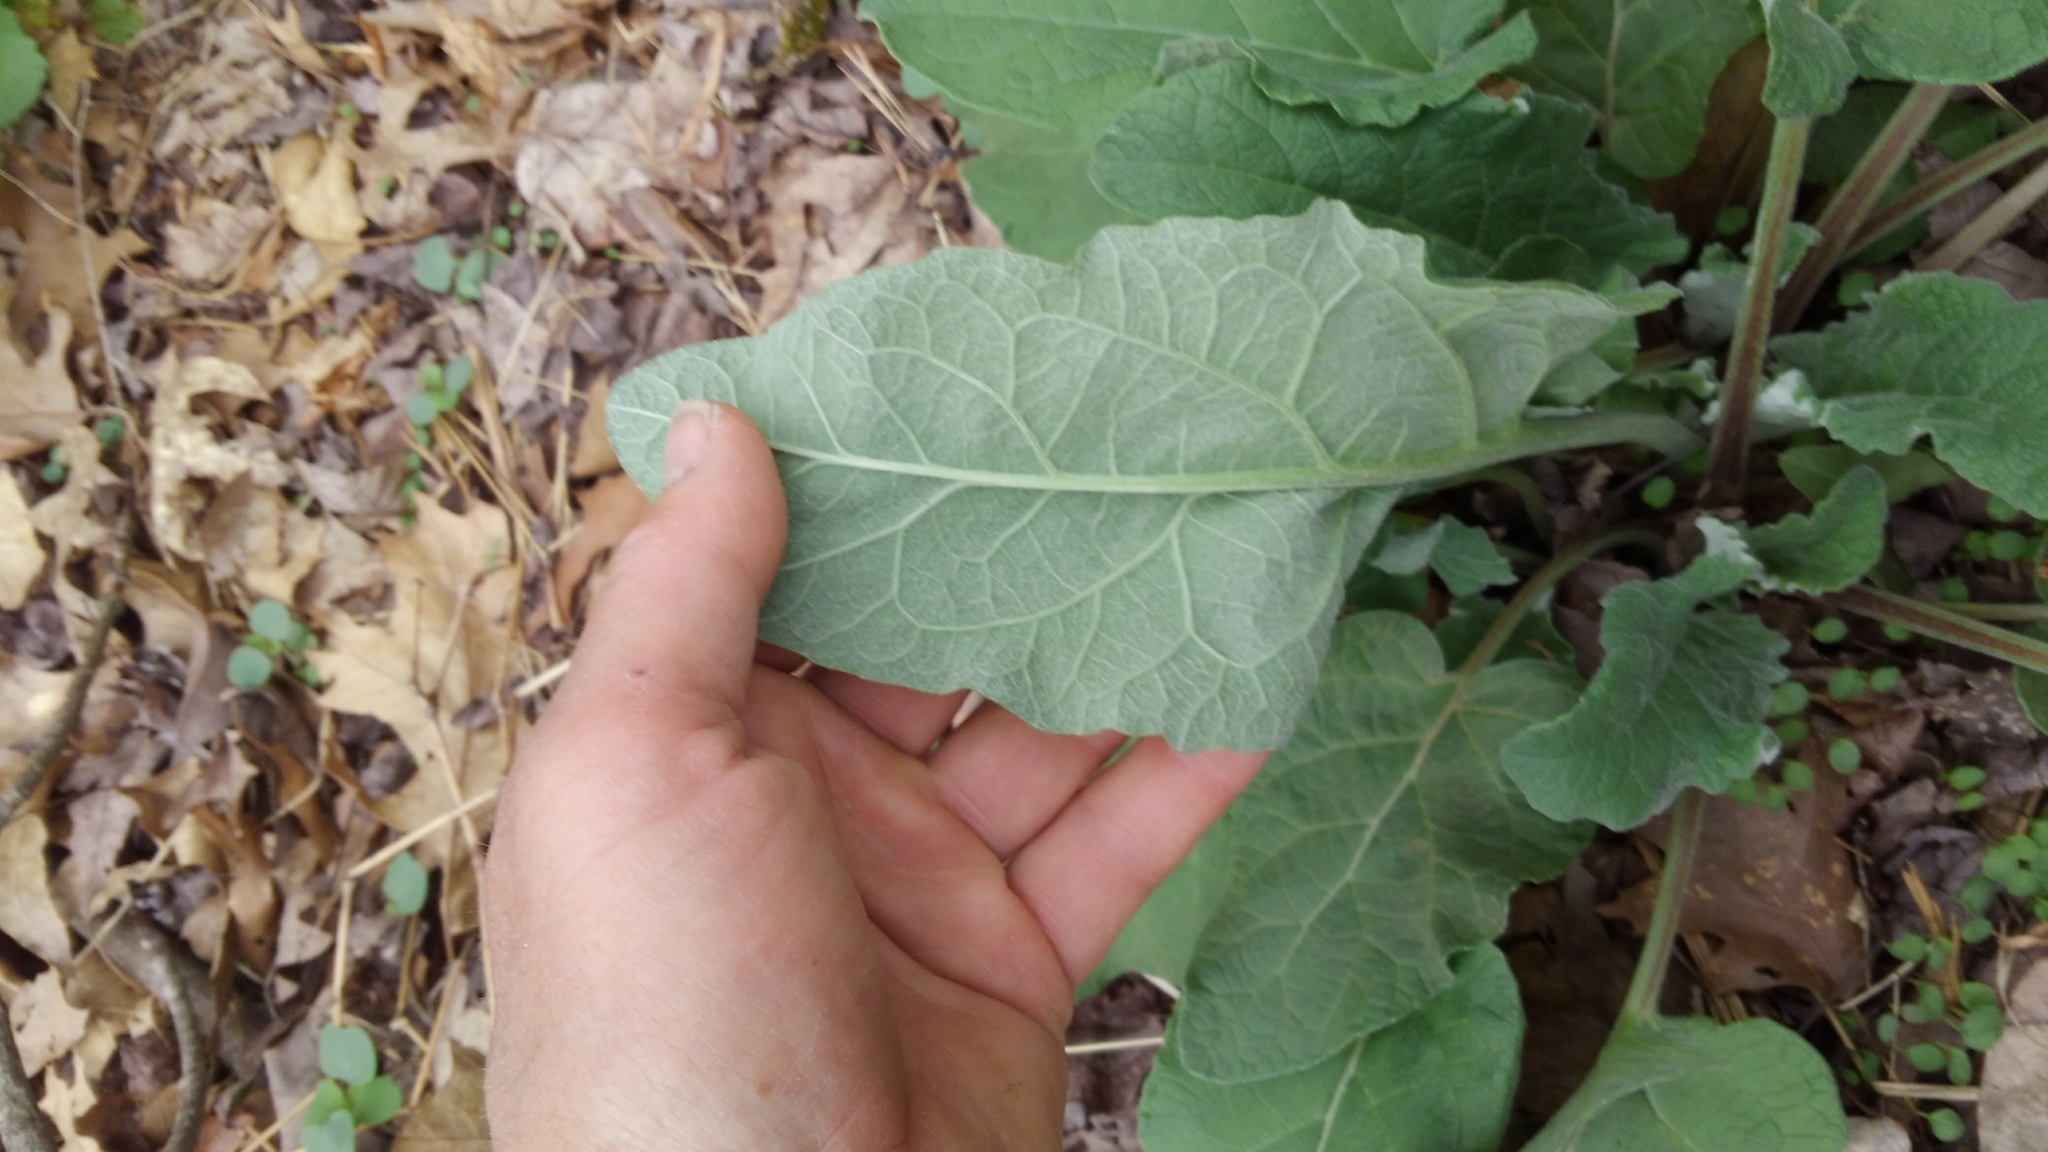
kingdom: Plantae
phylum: Tracheophyta
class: Magnoliopsida
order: Asterales
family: Asteraceae
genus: Arctium
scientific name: Arctium
